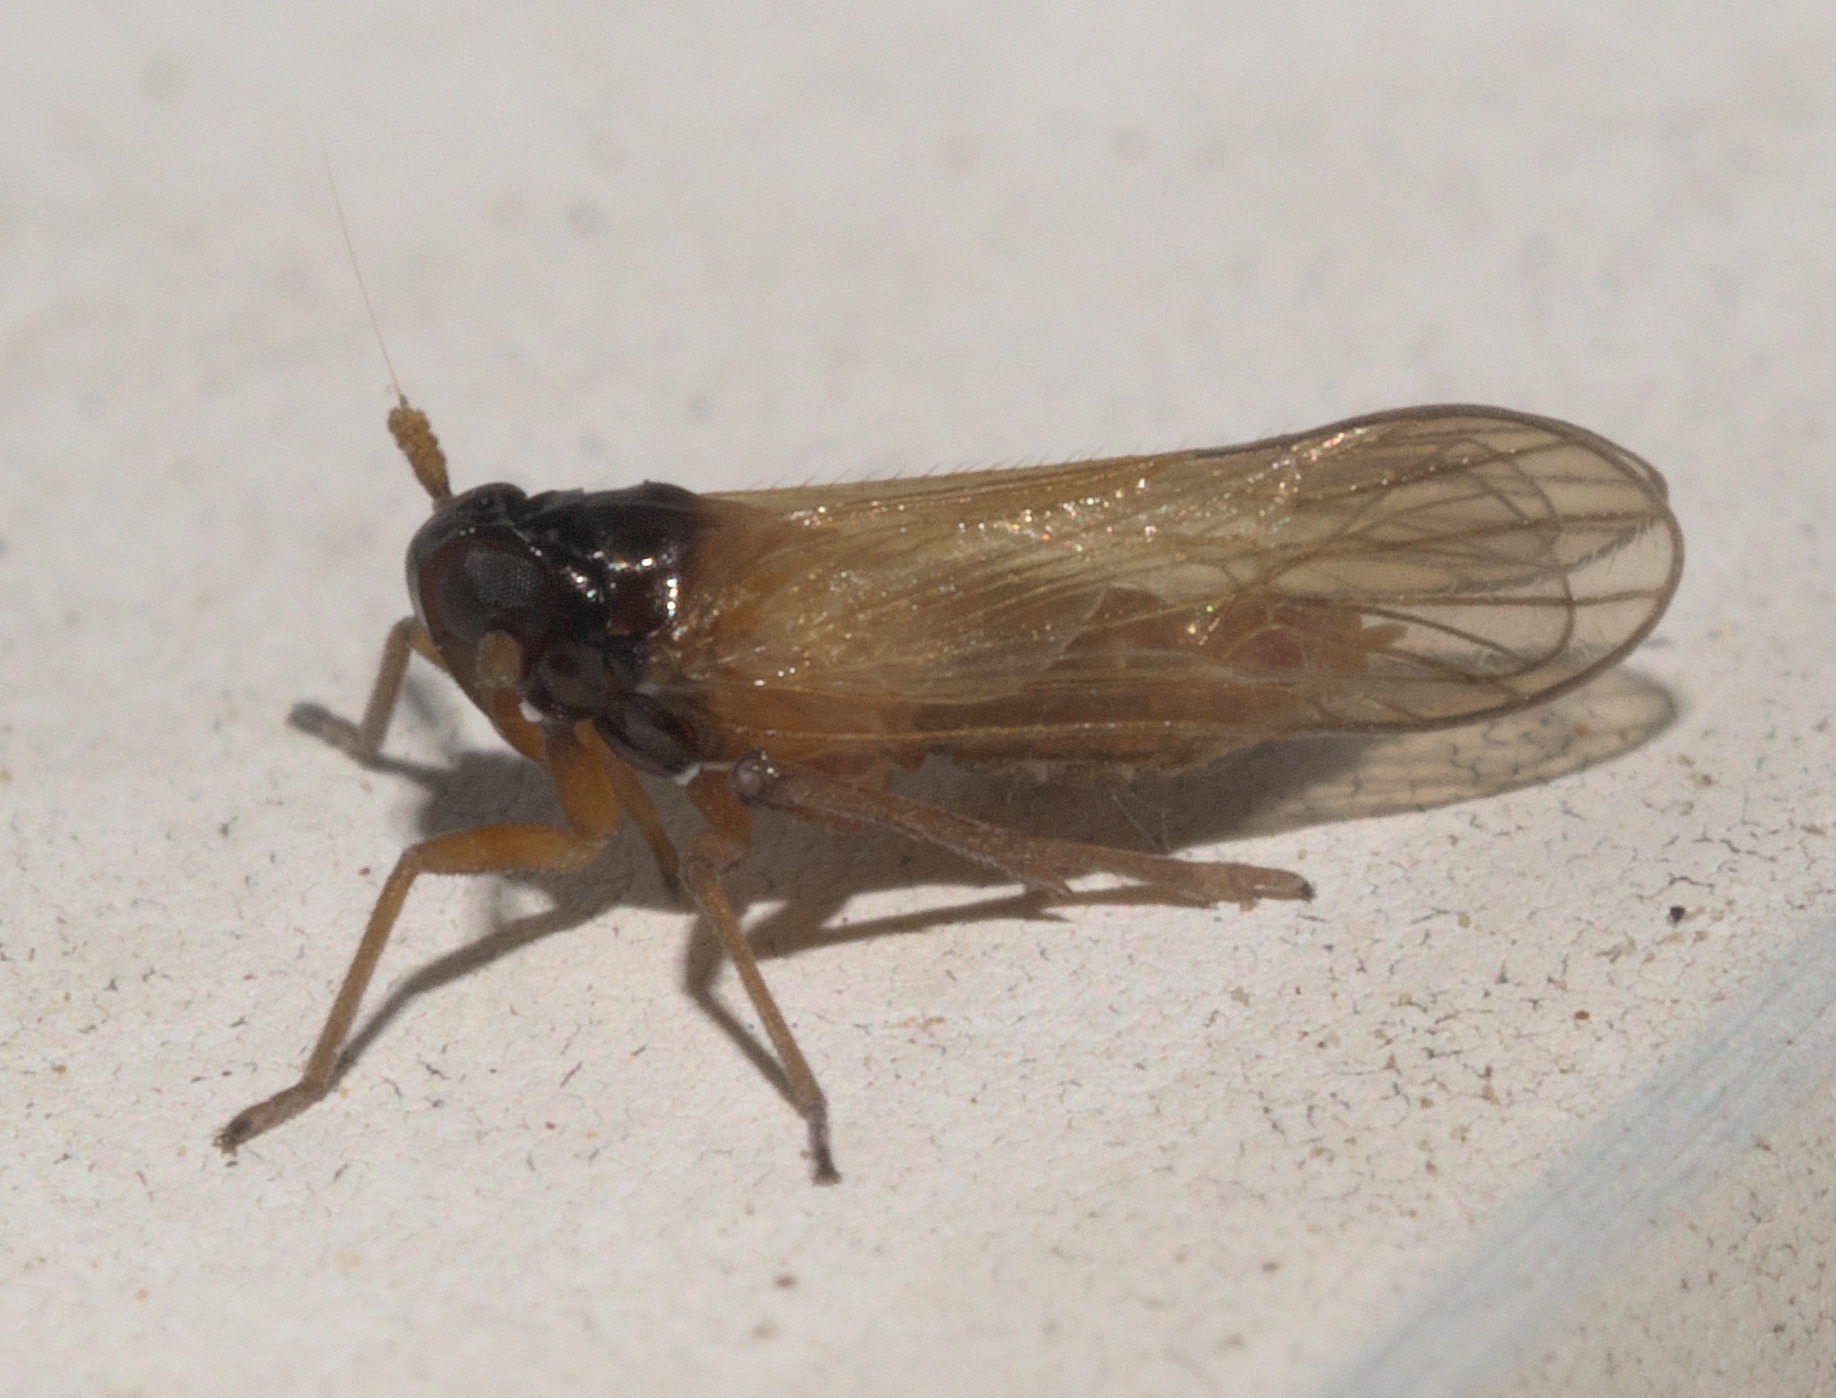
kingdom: Animalia
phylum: Arthropoda
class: Insecta
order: Hemiptera
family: Delphacidae
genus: Penepissonotus
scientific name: Penepissonotus bicolor
